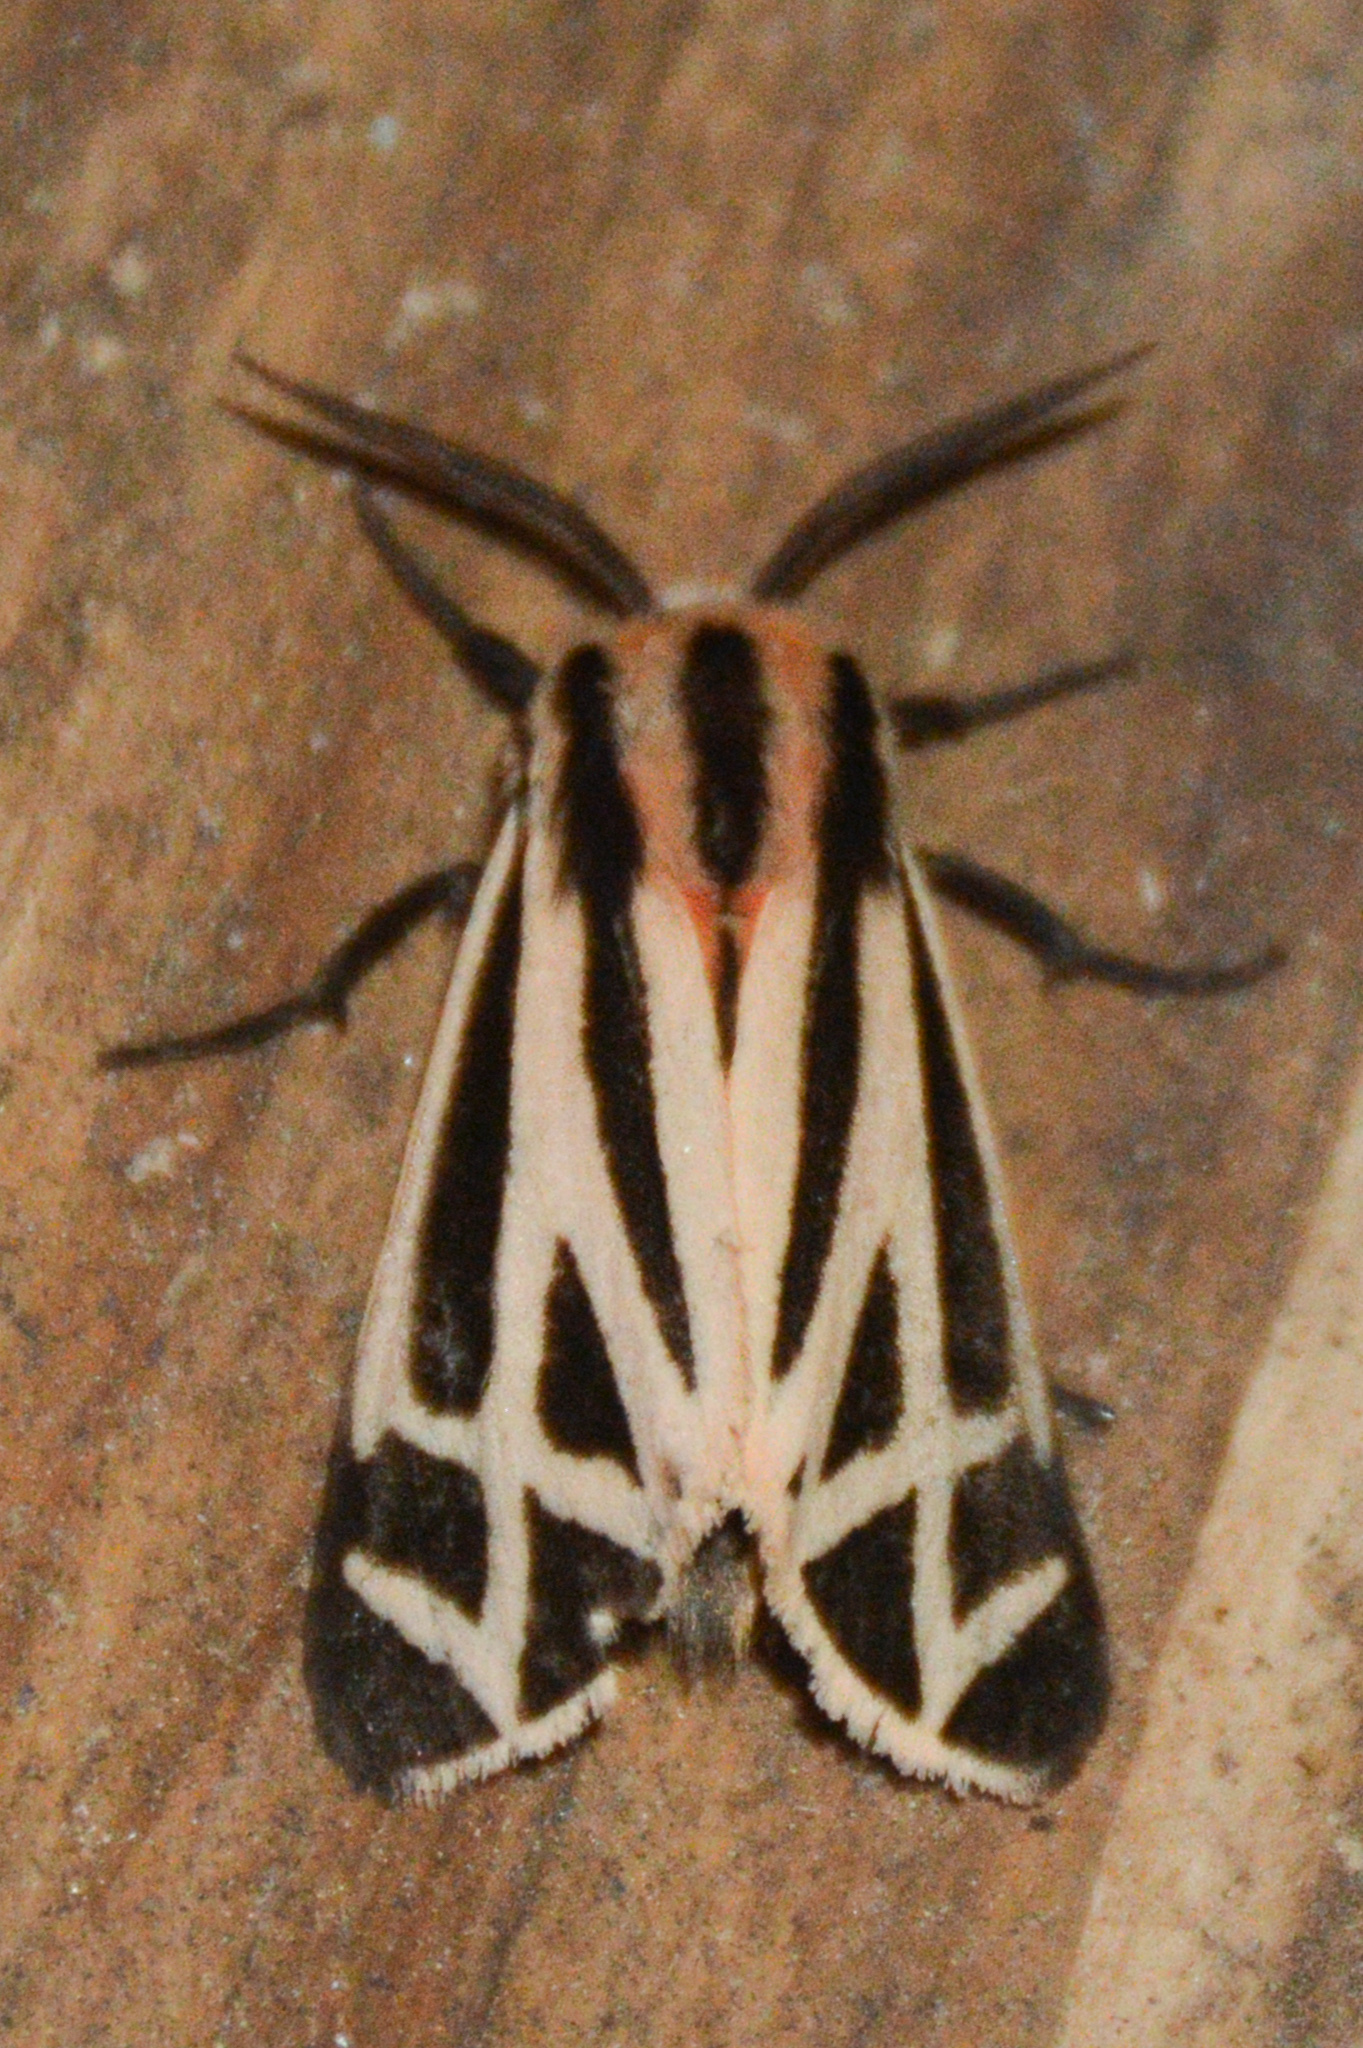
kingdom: Animalia
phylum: Arthropoda
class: Insecta
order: Lepidoptera
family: Erebidae
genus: Apantesis
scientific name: Apantesis phalerata
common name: Harnessed tiger moth
